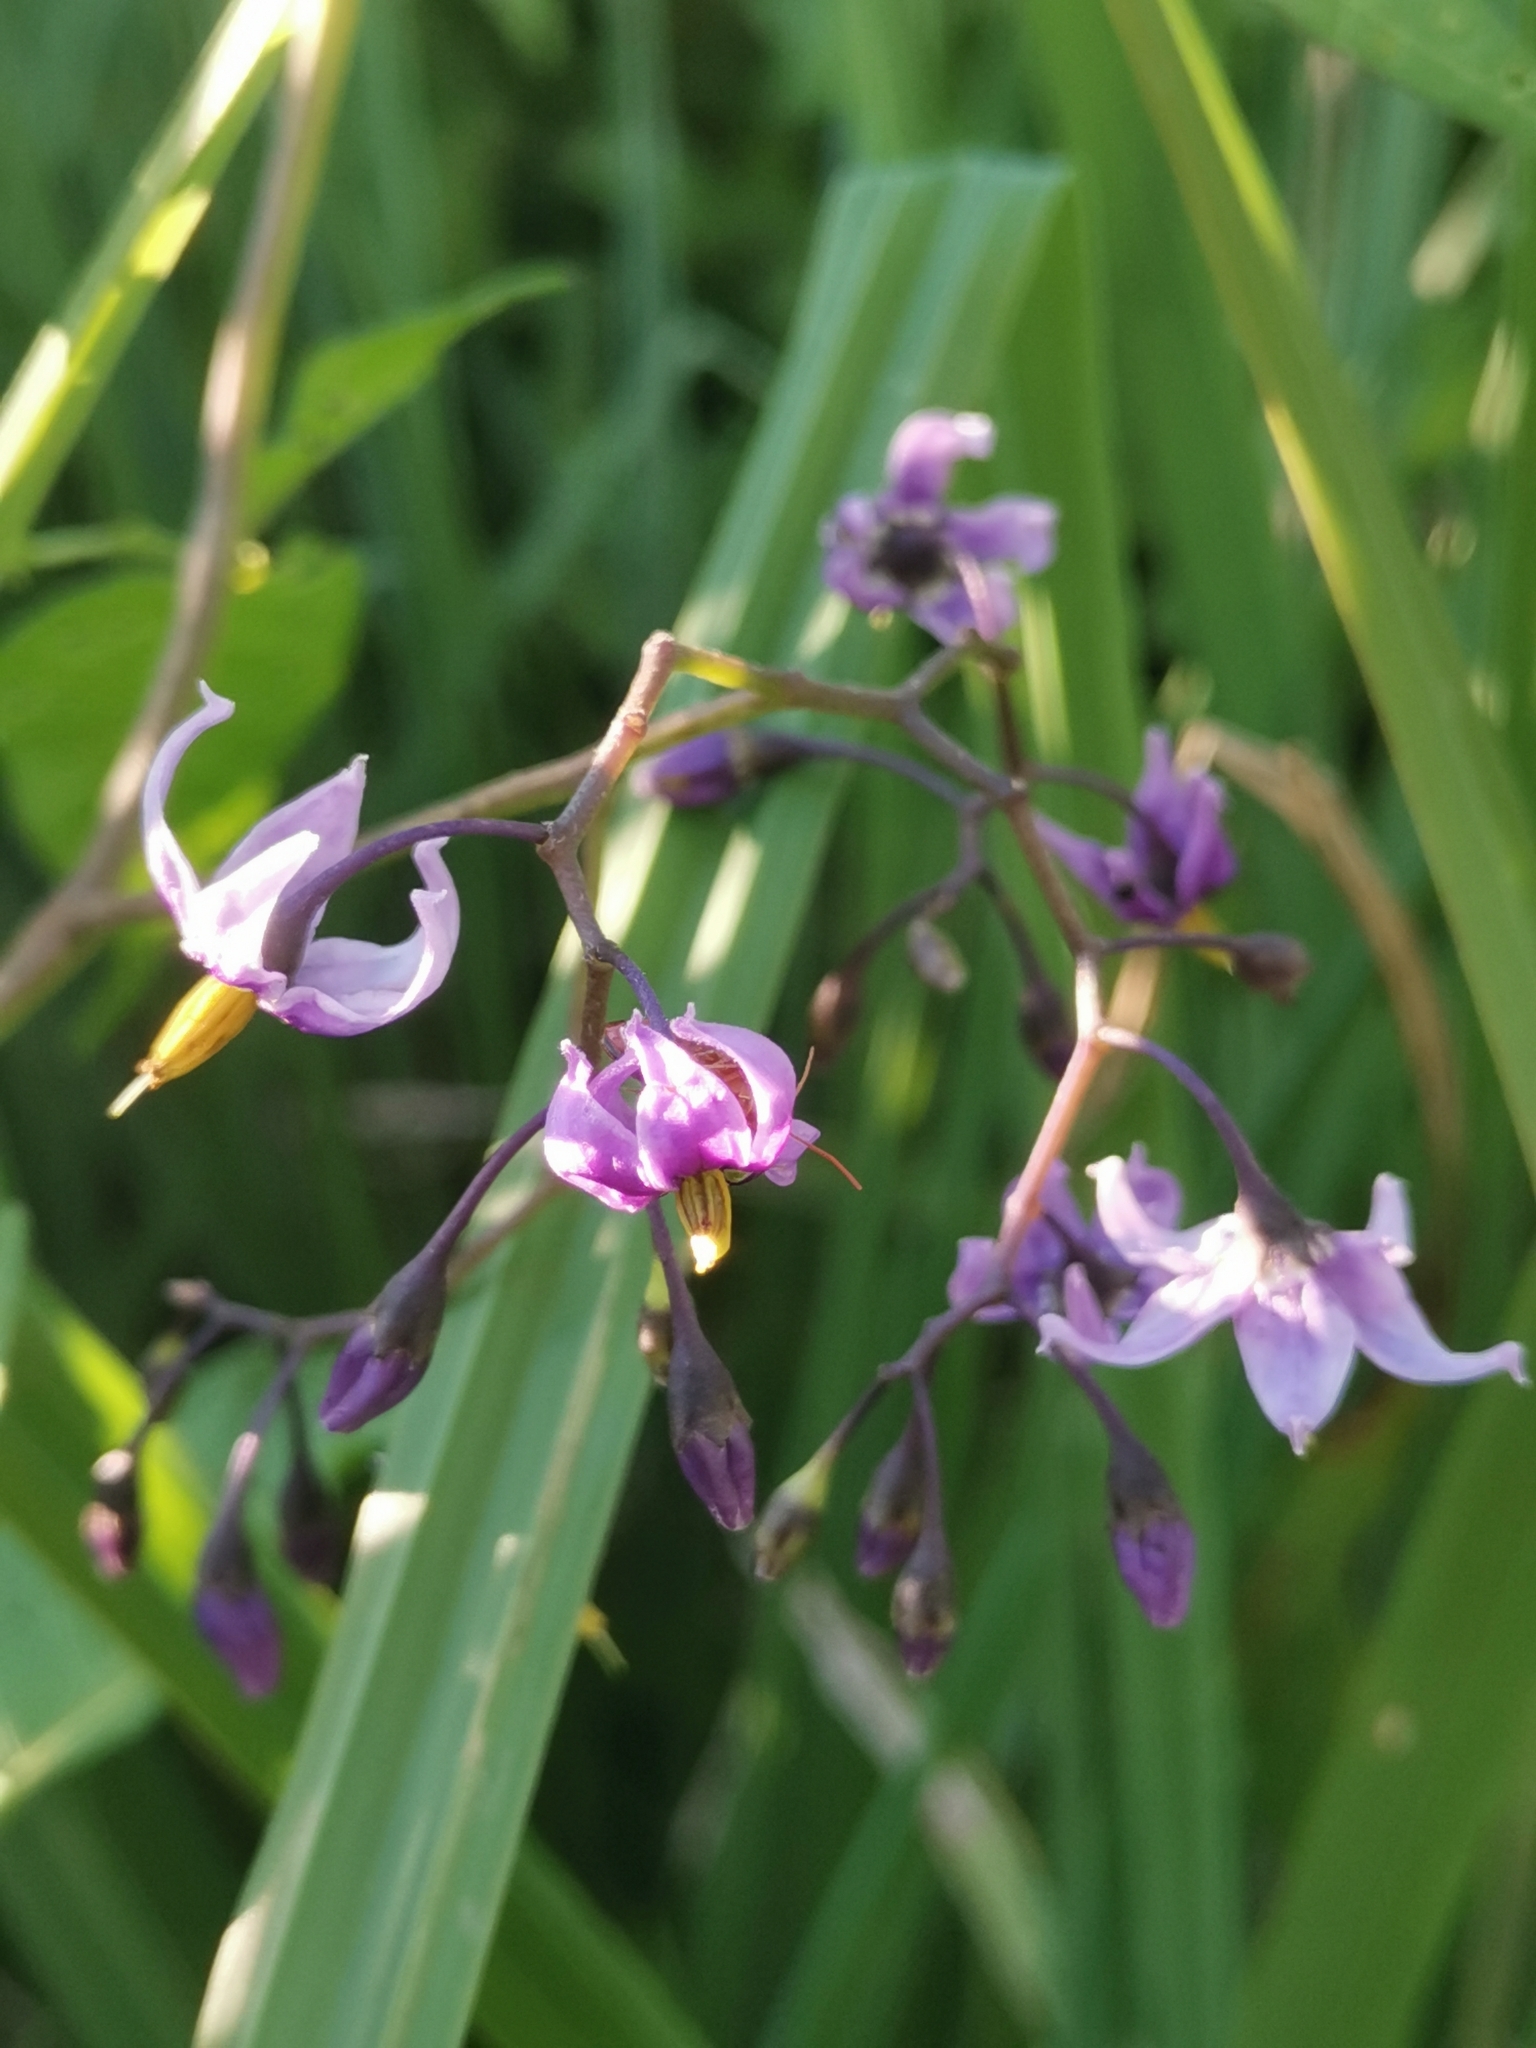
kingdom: Plantae
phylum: Tracheophyta
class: Magnoliopsida
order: Solanales
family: Solanaceae
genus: Solanum
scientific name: Solanum dulcamara
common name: Climbing nightshade
